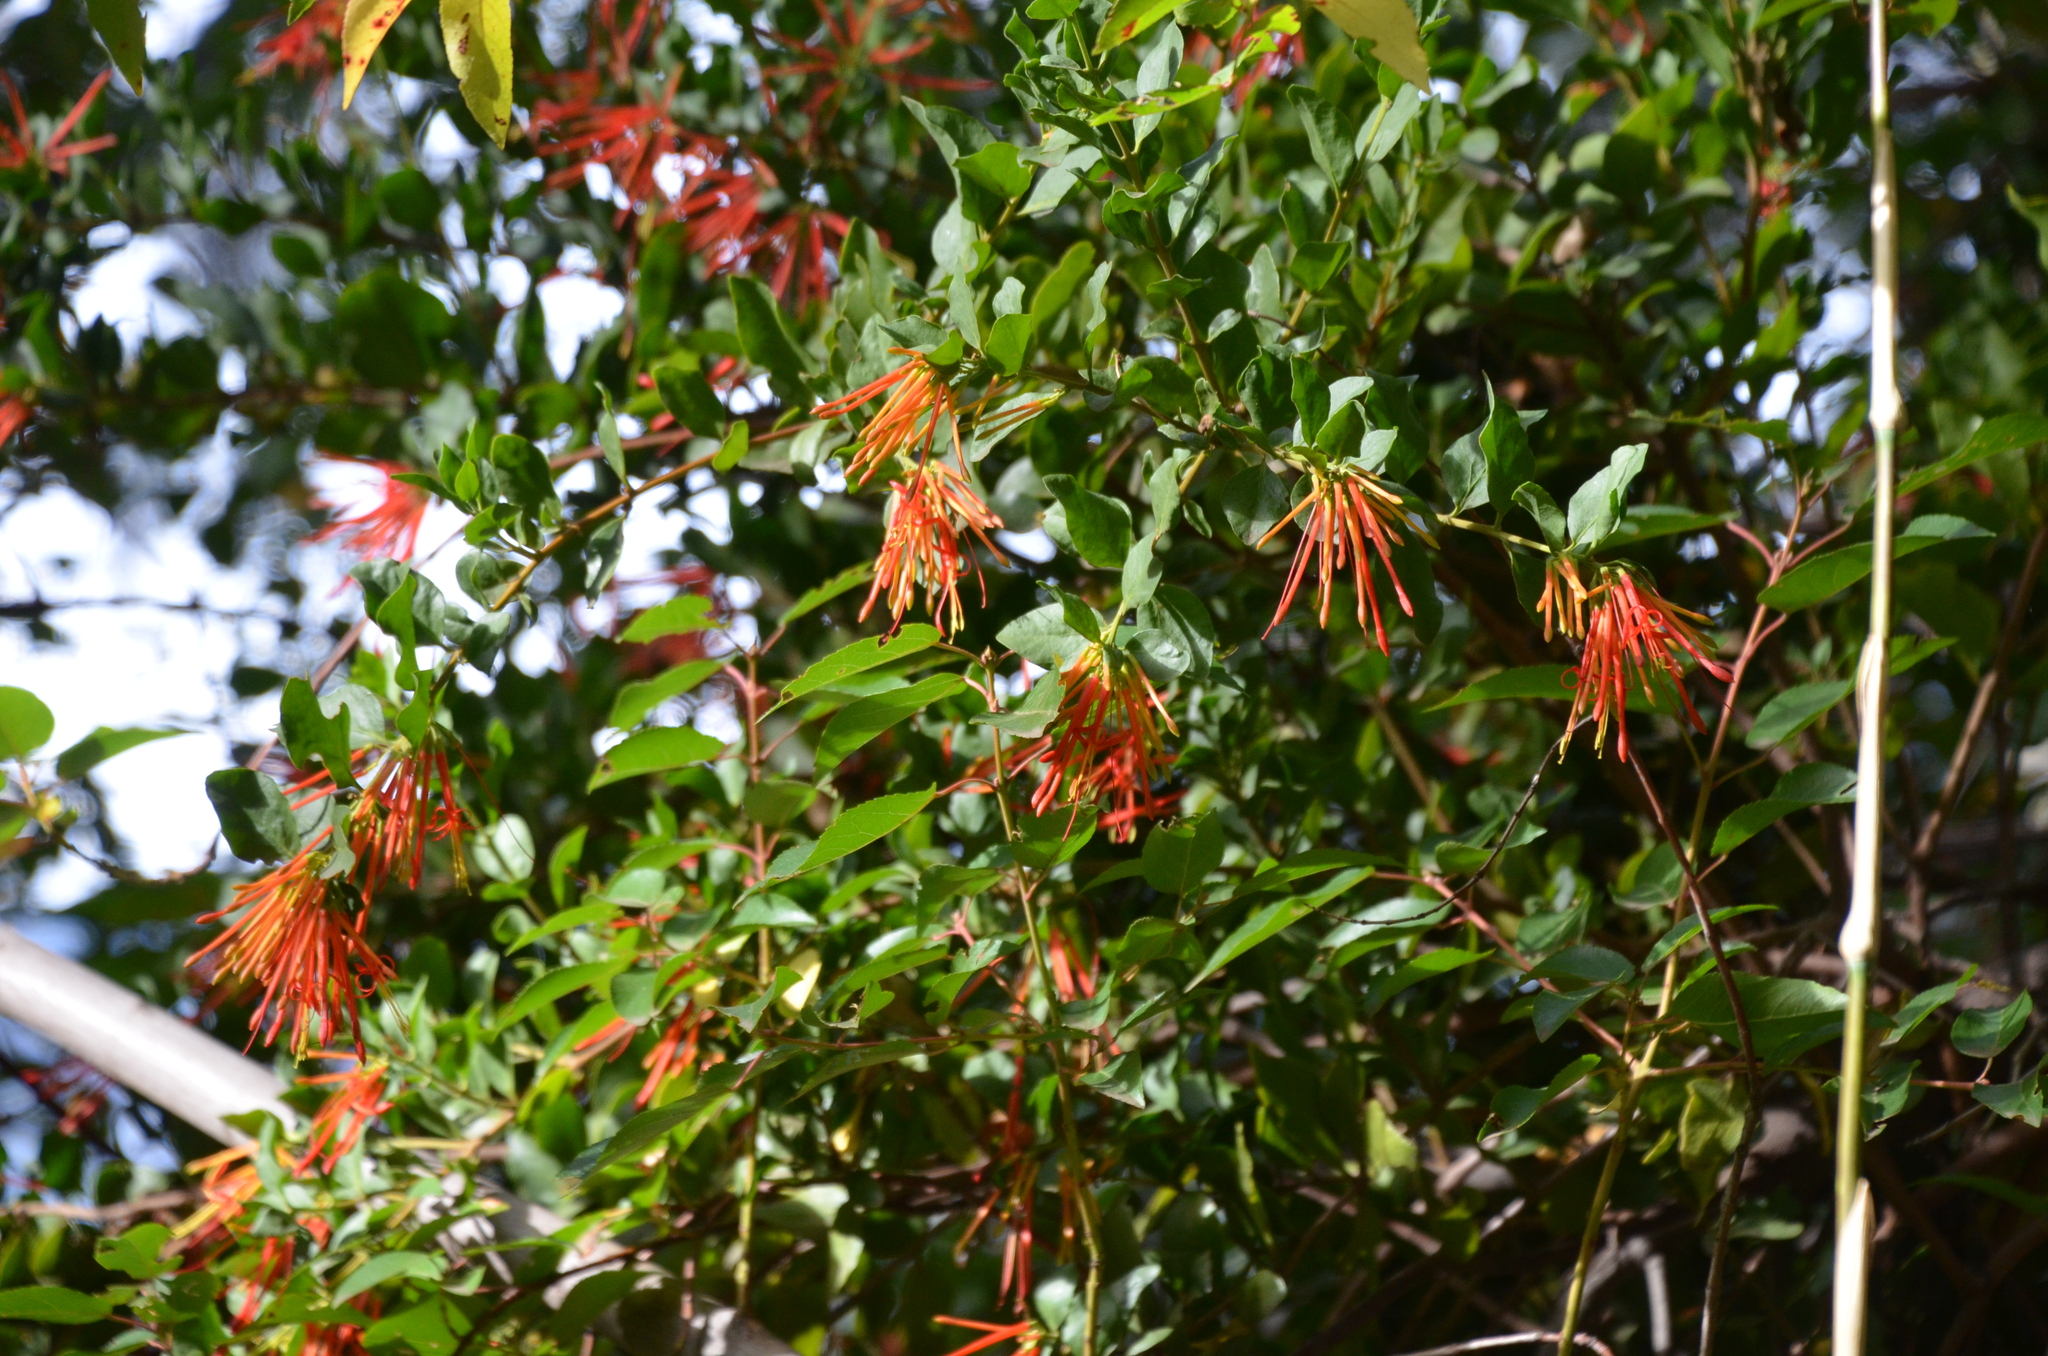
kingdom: Plantae
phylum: Tracheophyta
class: Magnoliopsida
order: Santalales
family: Loranthaceae
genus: Tristerix
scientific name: Tristerix corymbosus
